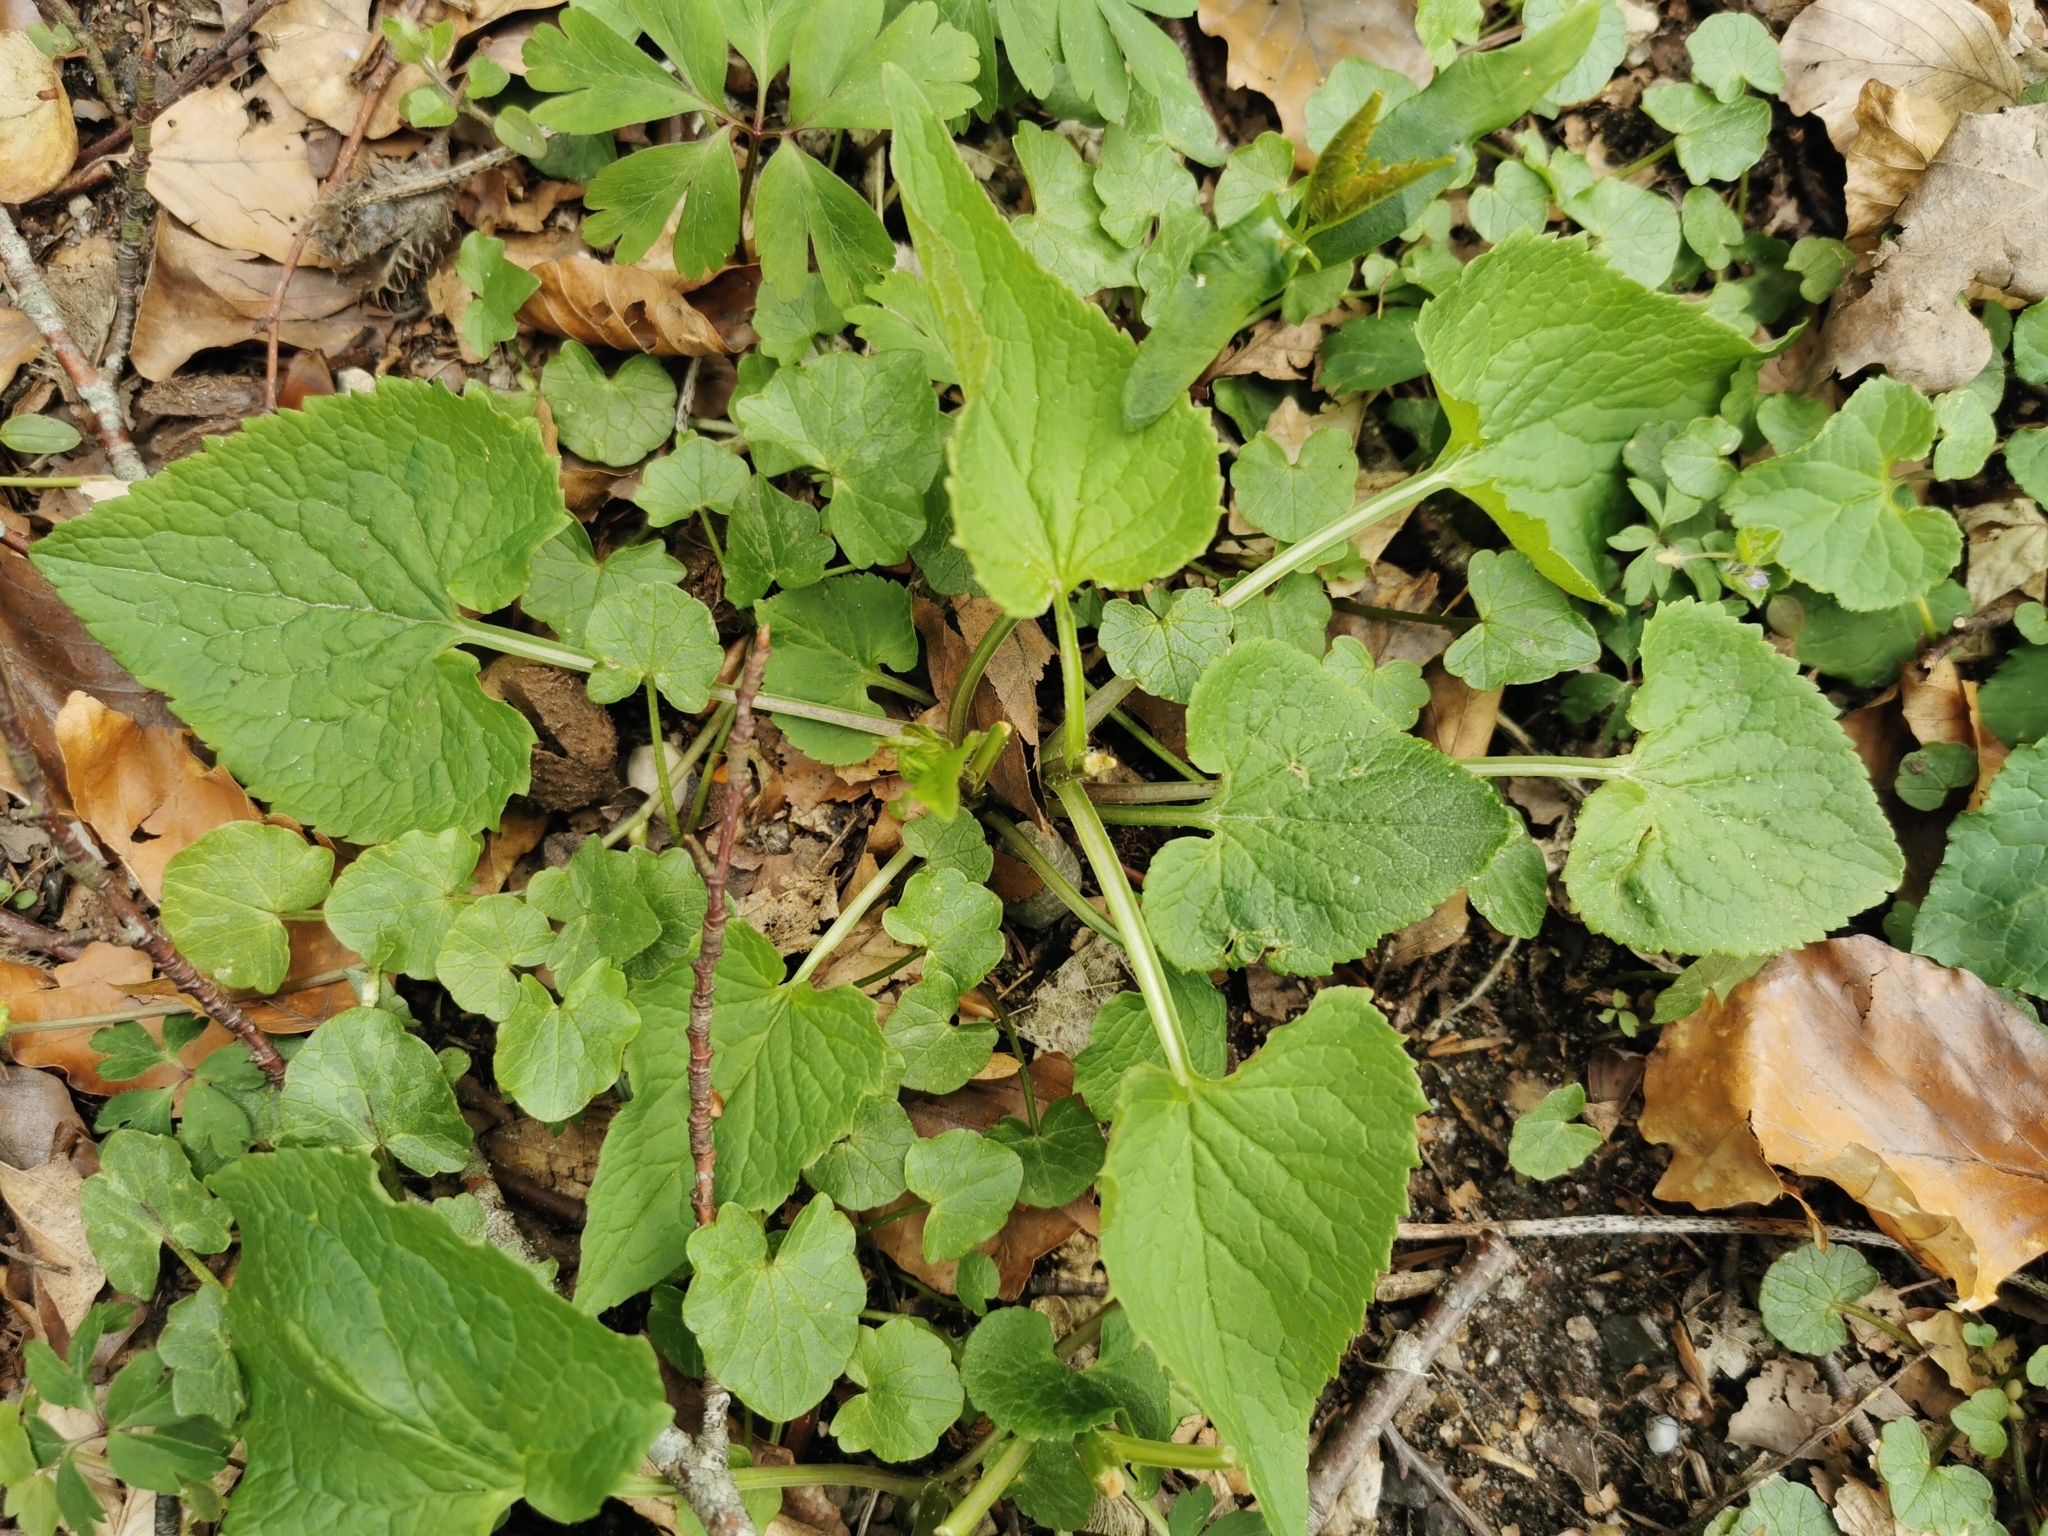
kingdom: Plantae
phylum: Tracheophyta
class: Magnoliopsida
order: Asterales
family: Campanulaceae
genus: Phyteuma
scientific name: Phyteuma spicatum
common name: Spiked rampion
